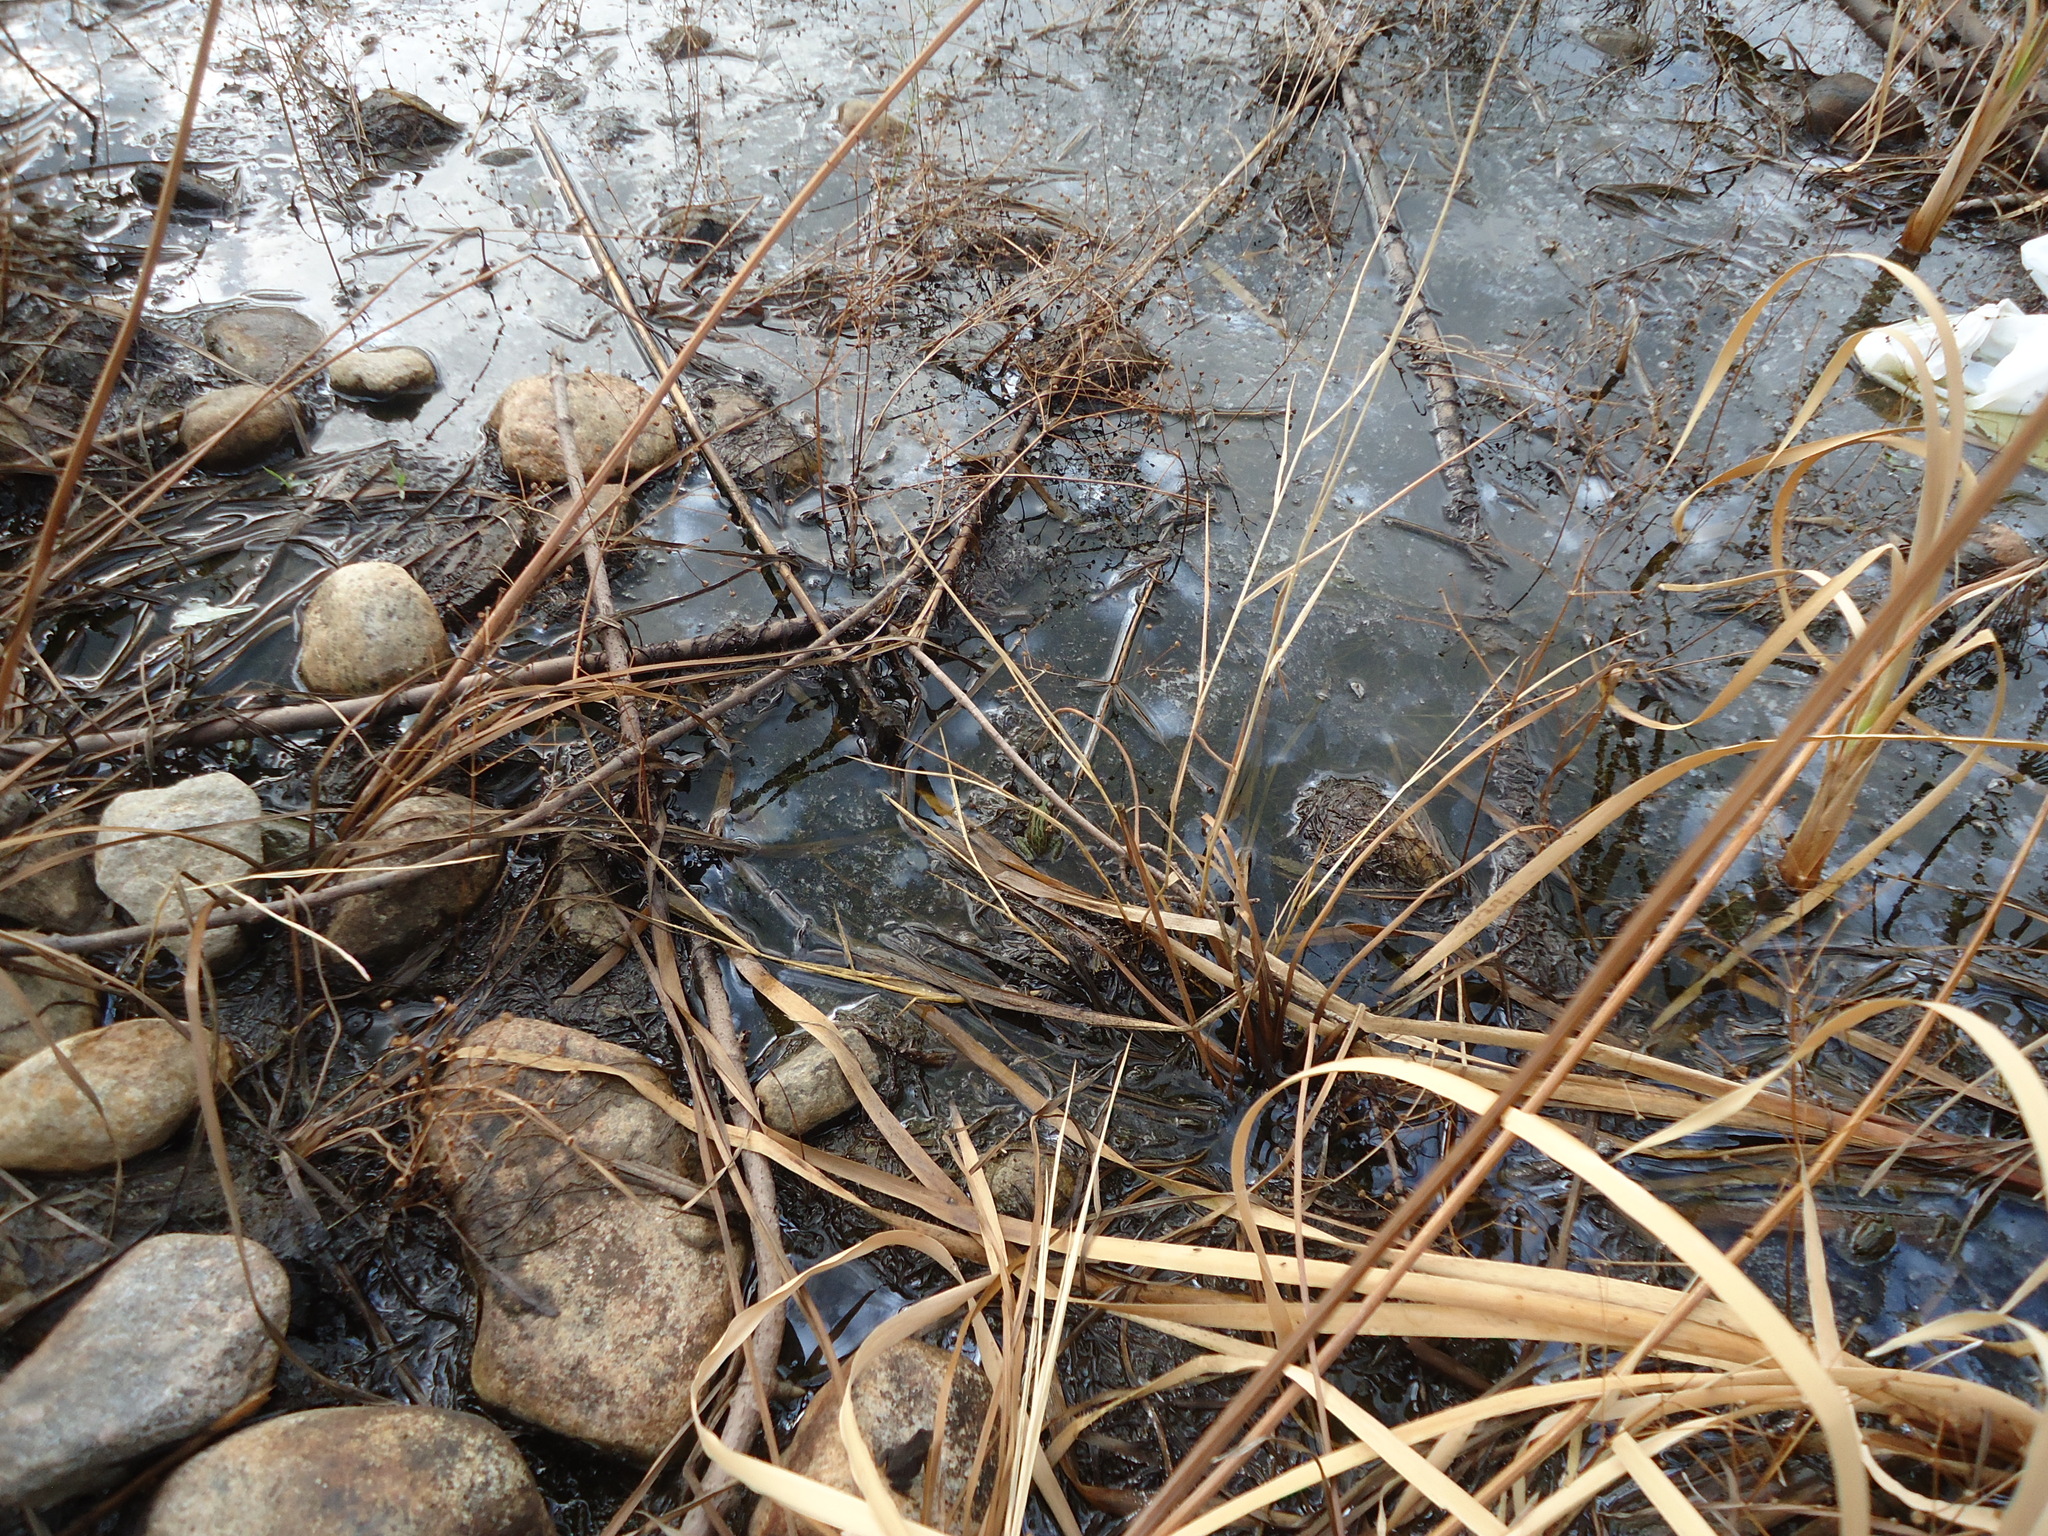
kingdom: Animalia
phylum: Chordata
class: Amphibia
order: Anura
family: Ranidae
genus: Lithobates
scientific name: Lithobates pipiens
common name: Northern leopard frog
